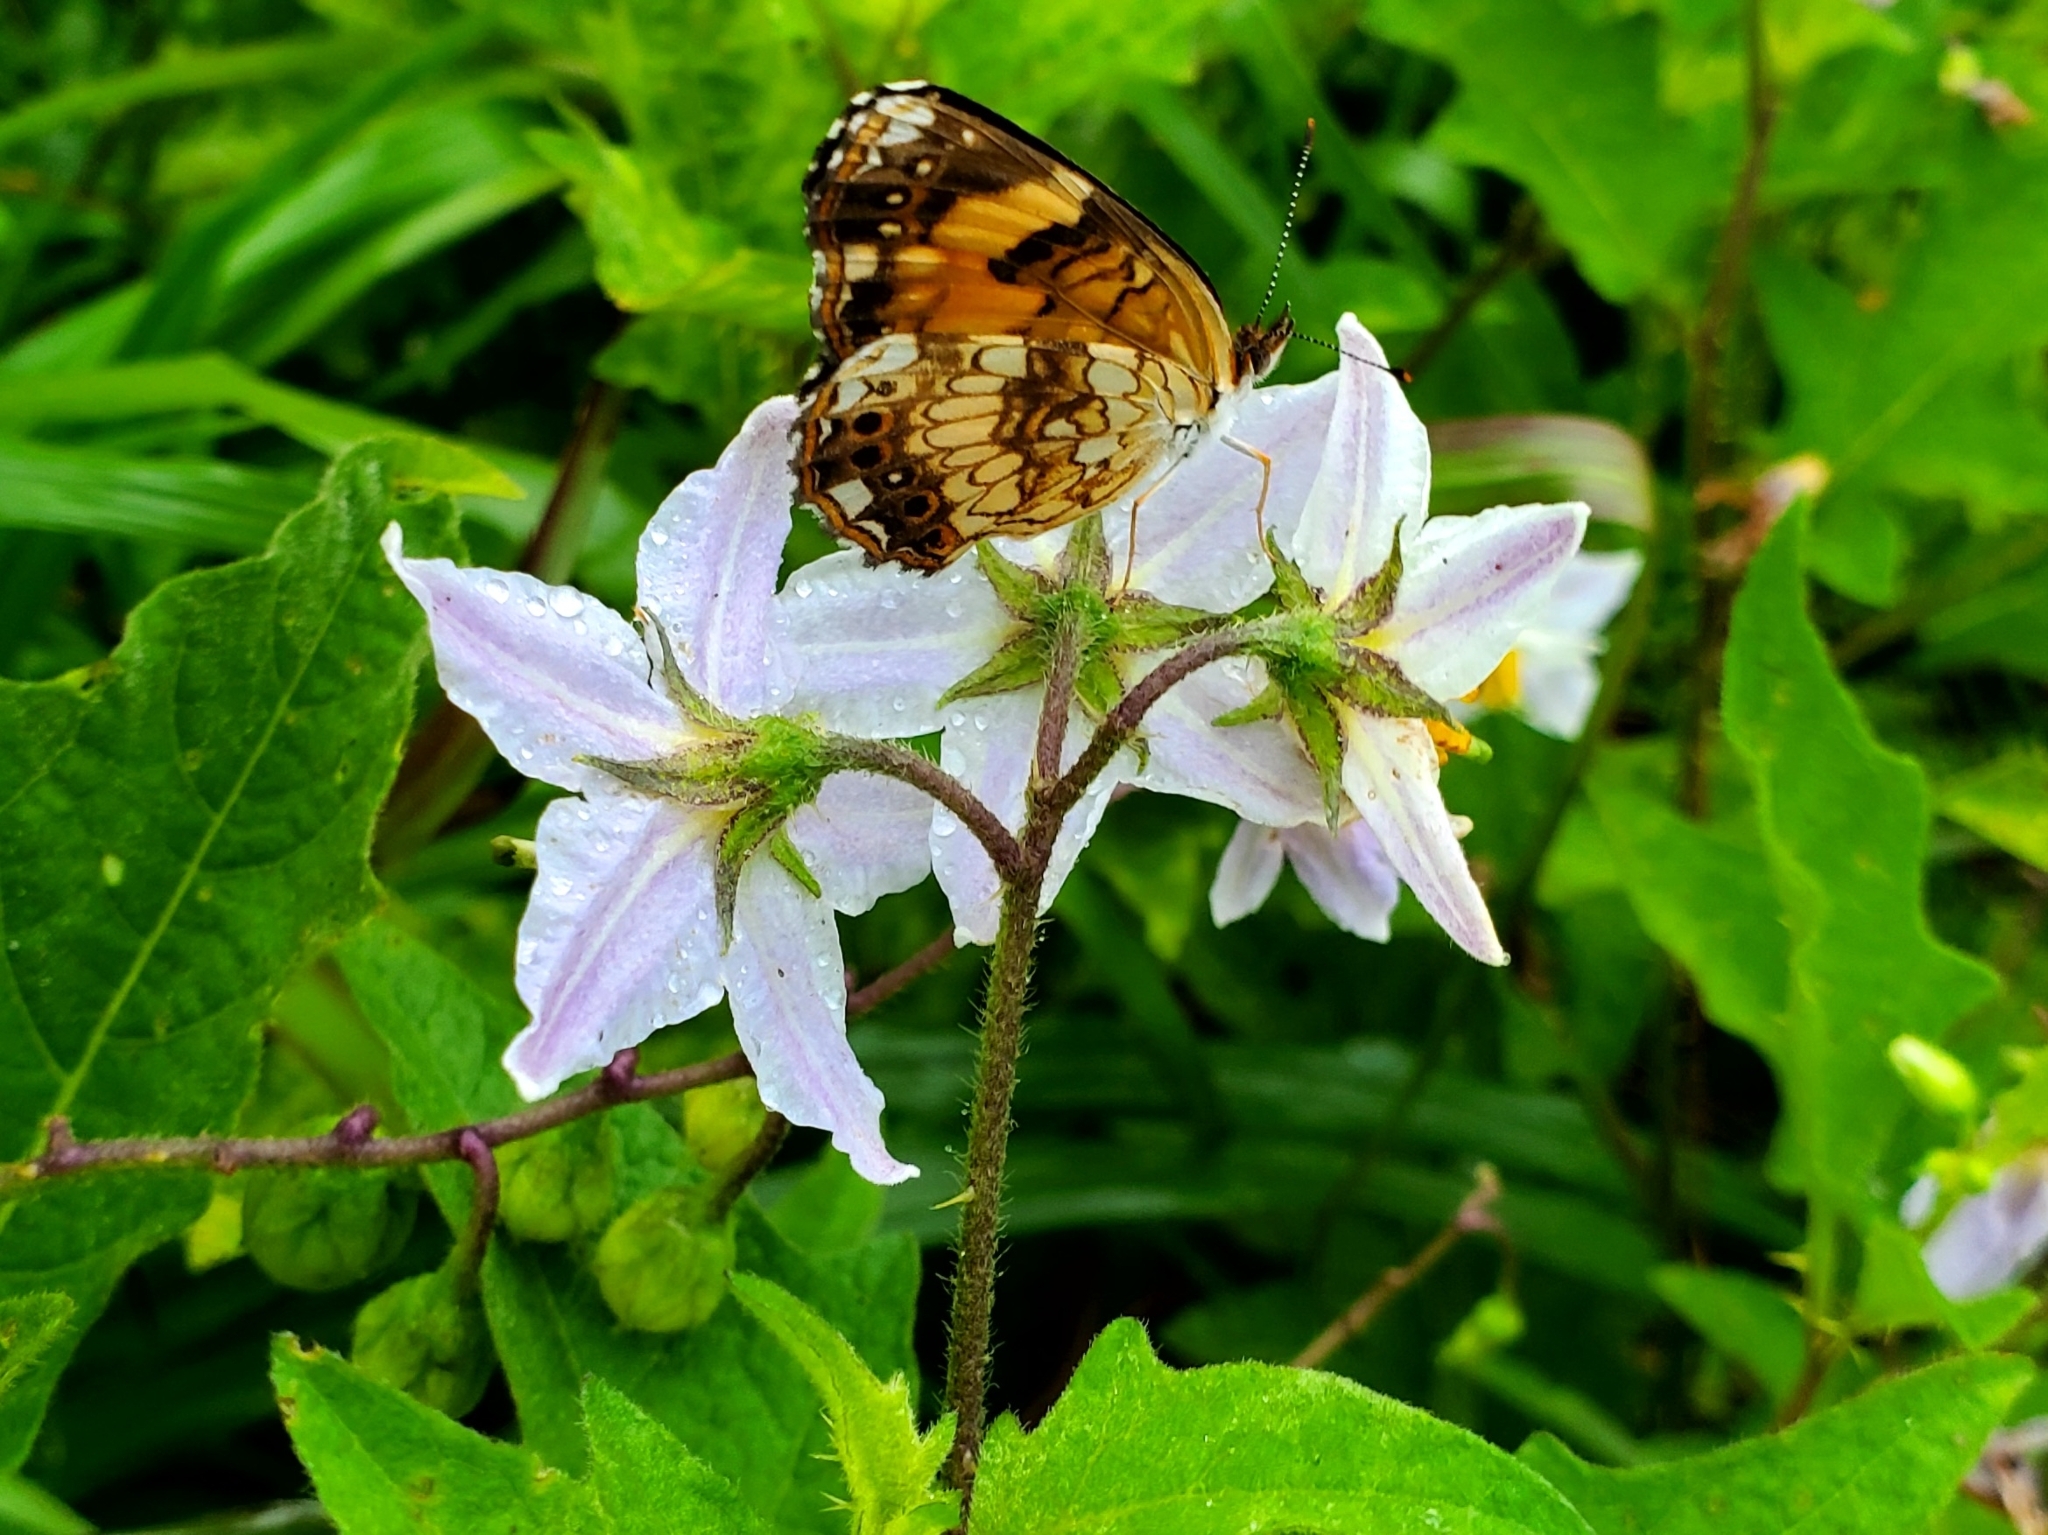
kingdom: Animalia
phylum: Arthropoda
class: Insecta
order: Lepidoptera
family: Nymphalidae
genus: Chlosyne
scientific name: Chlosyne nycteis
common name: Silvery checkerspot
